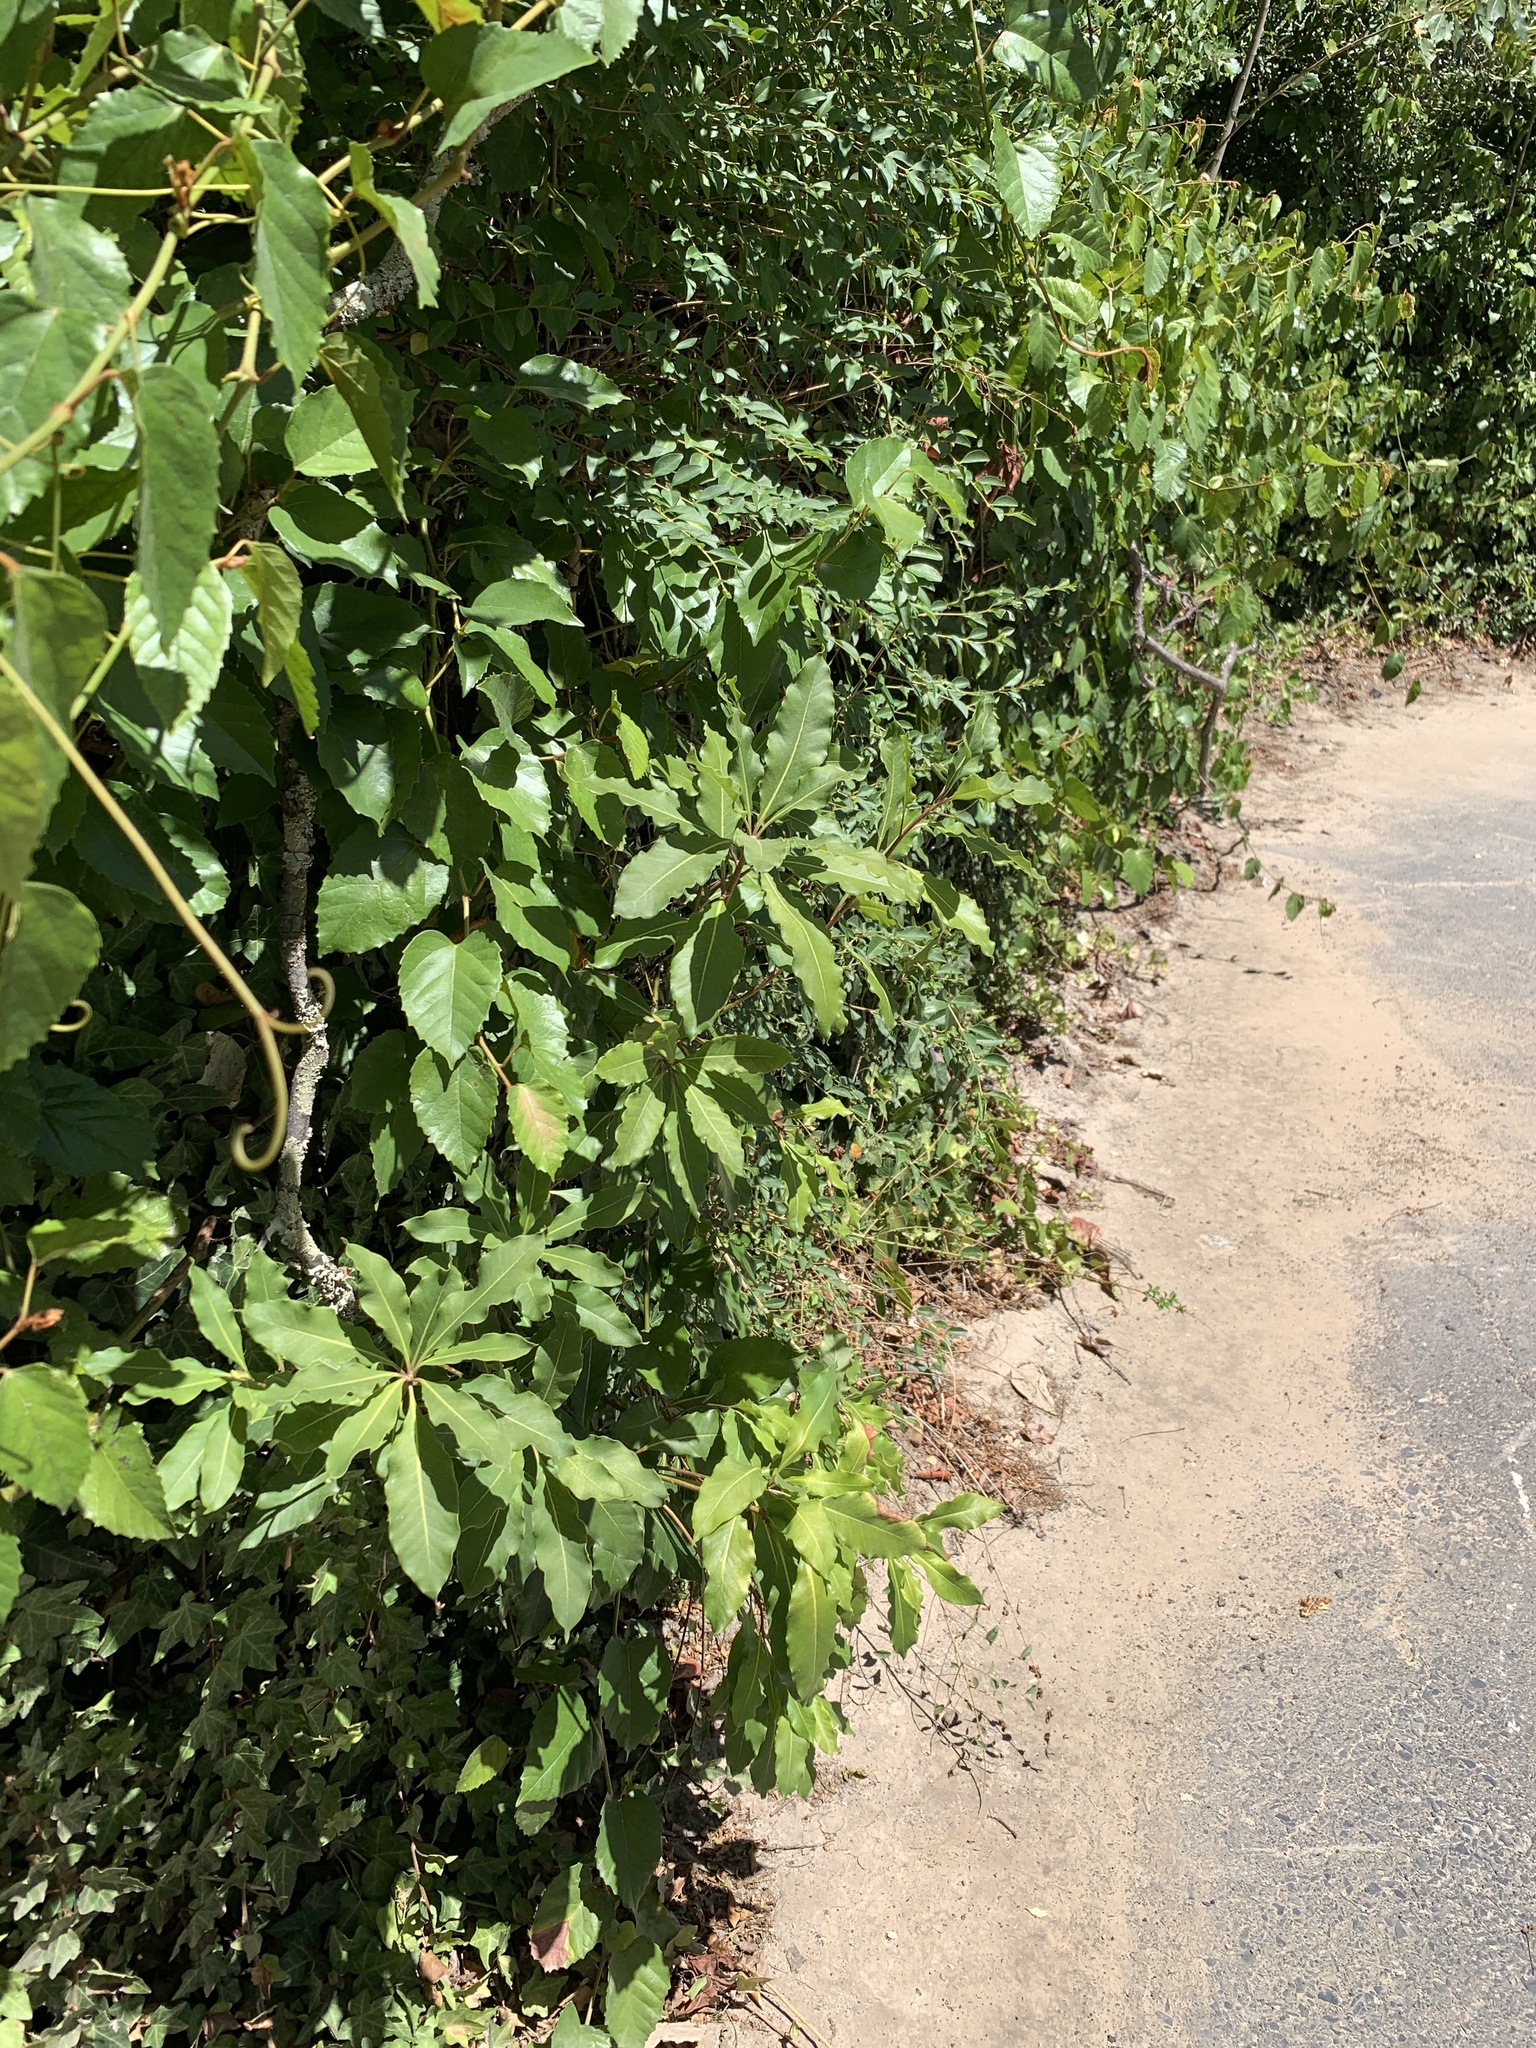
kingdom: Plantae
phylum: Tracheophyta
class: Magnoliopsida
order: Apiales
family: Pittosporaceae
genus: Pittosporum
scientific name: Pittosporum undulatum
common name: Australian cheesewood
